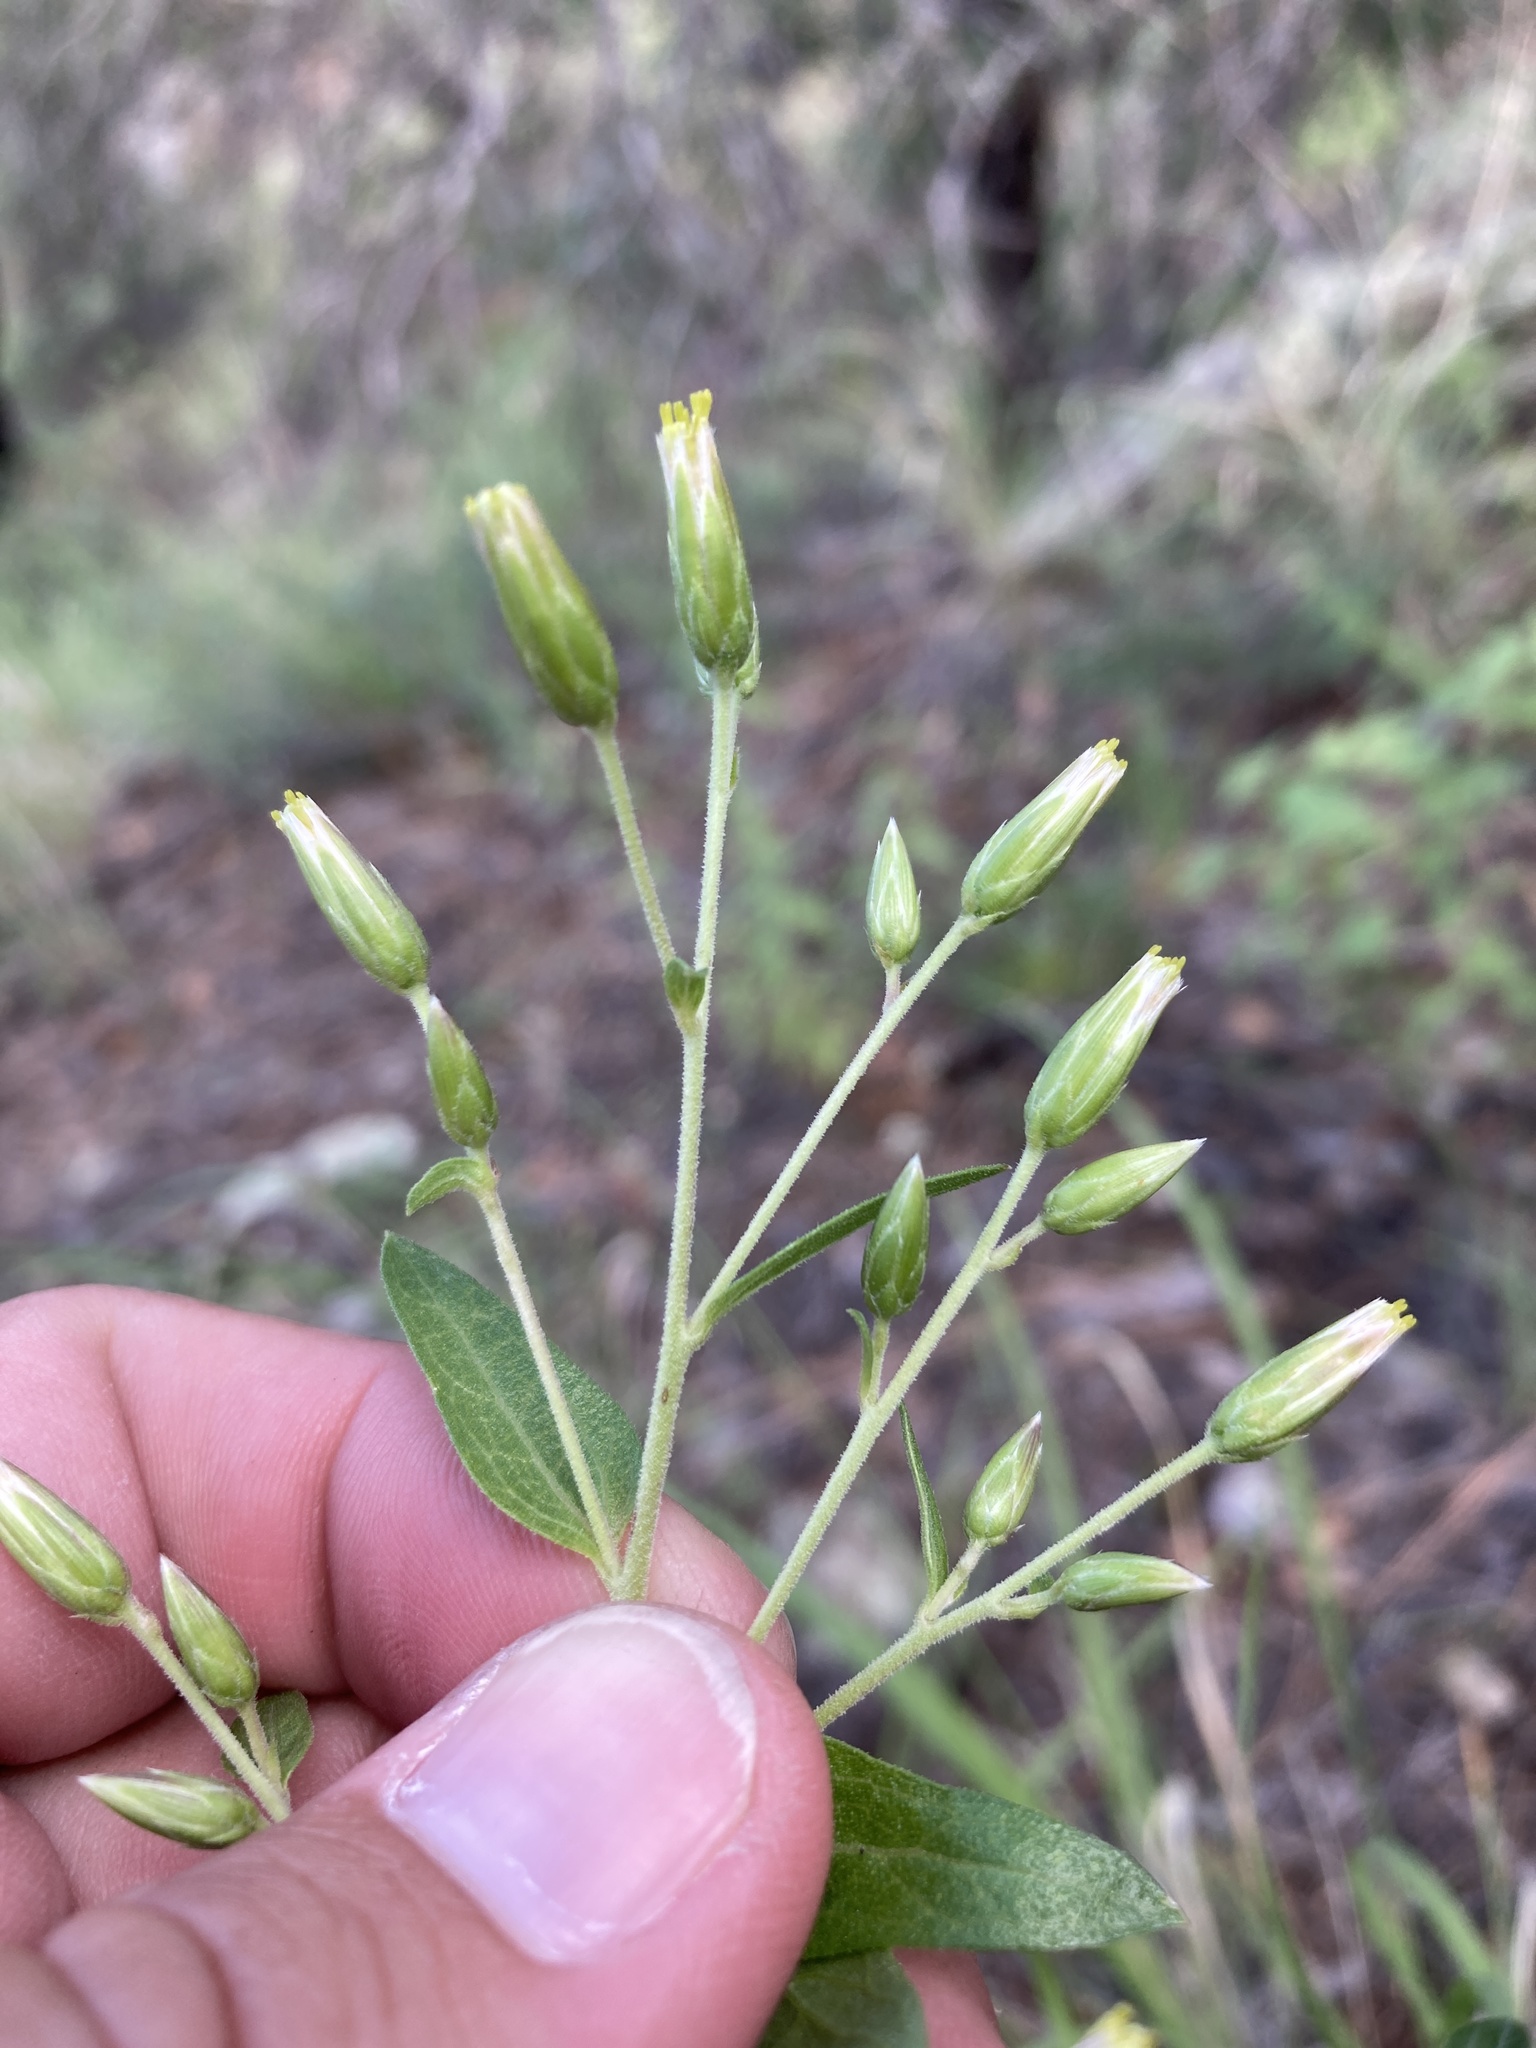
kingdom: Plantae
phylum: Tracheophyta
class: Magnoliopsida
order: Asterales
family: Asteraceae
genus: Brickellia
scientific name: Brickellia brachyphylla
